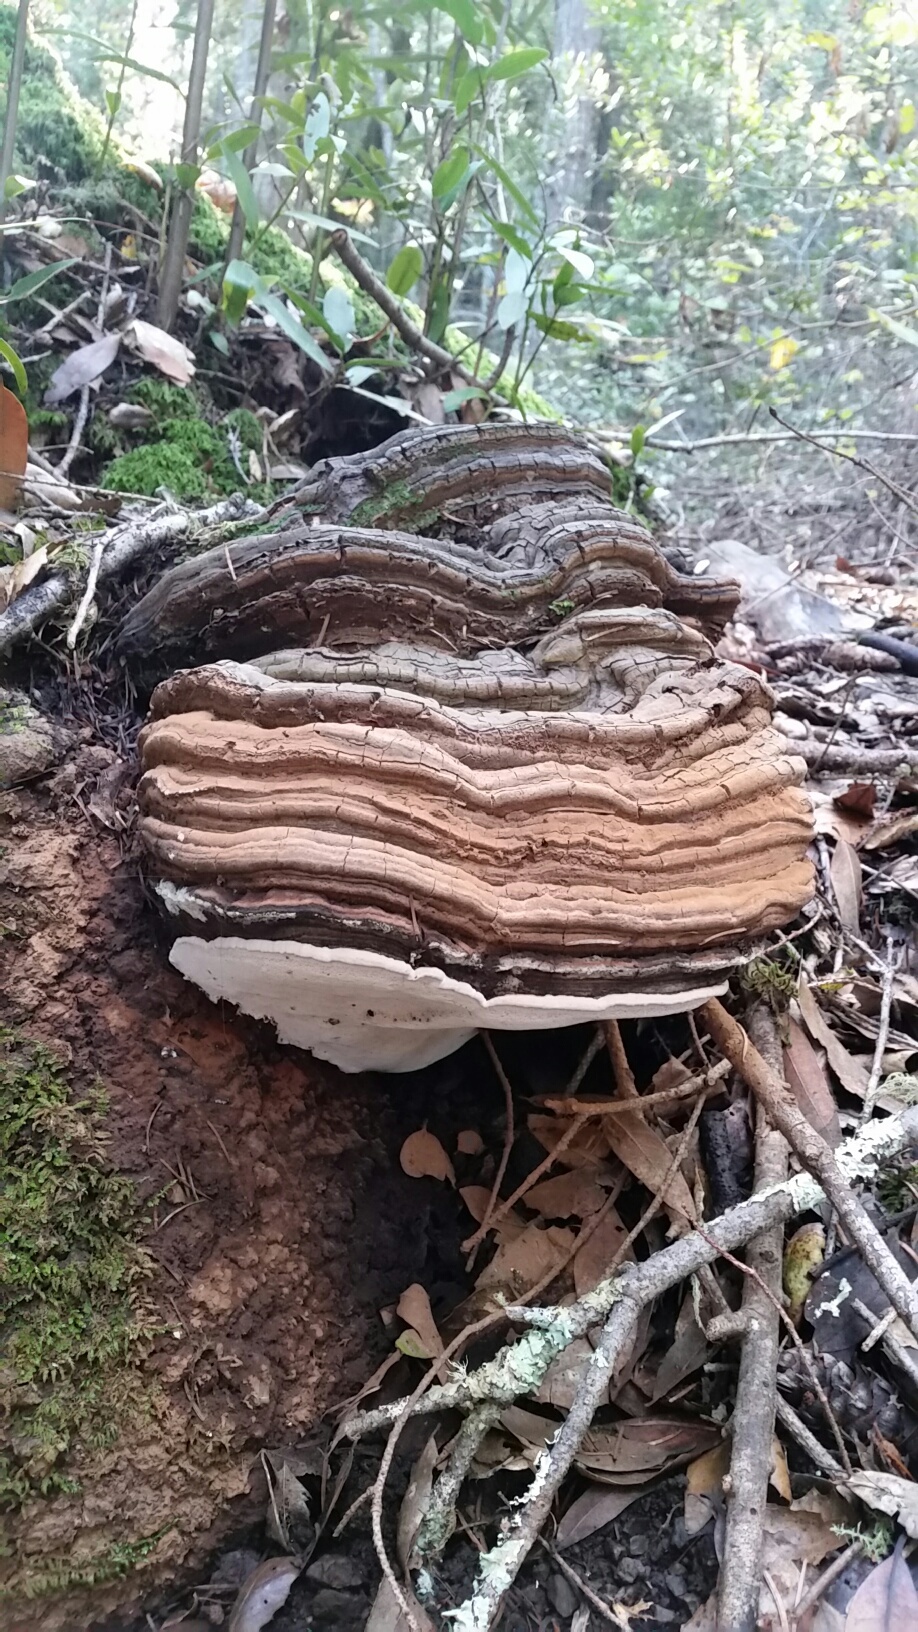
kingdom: Fungi
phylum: Basidiomycota
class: Agaricomycetes
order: Polyporales
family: Polyporaceae
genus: Ganoderma
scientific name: Ganoderma brownii
